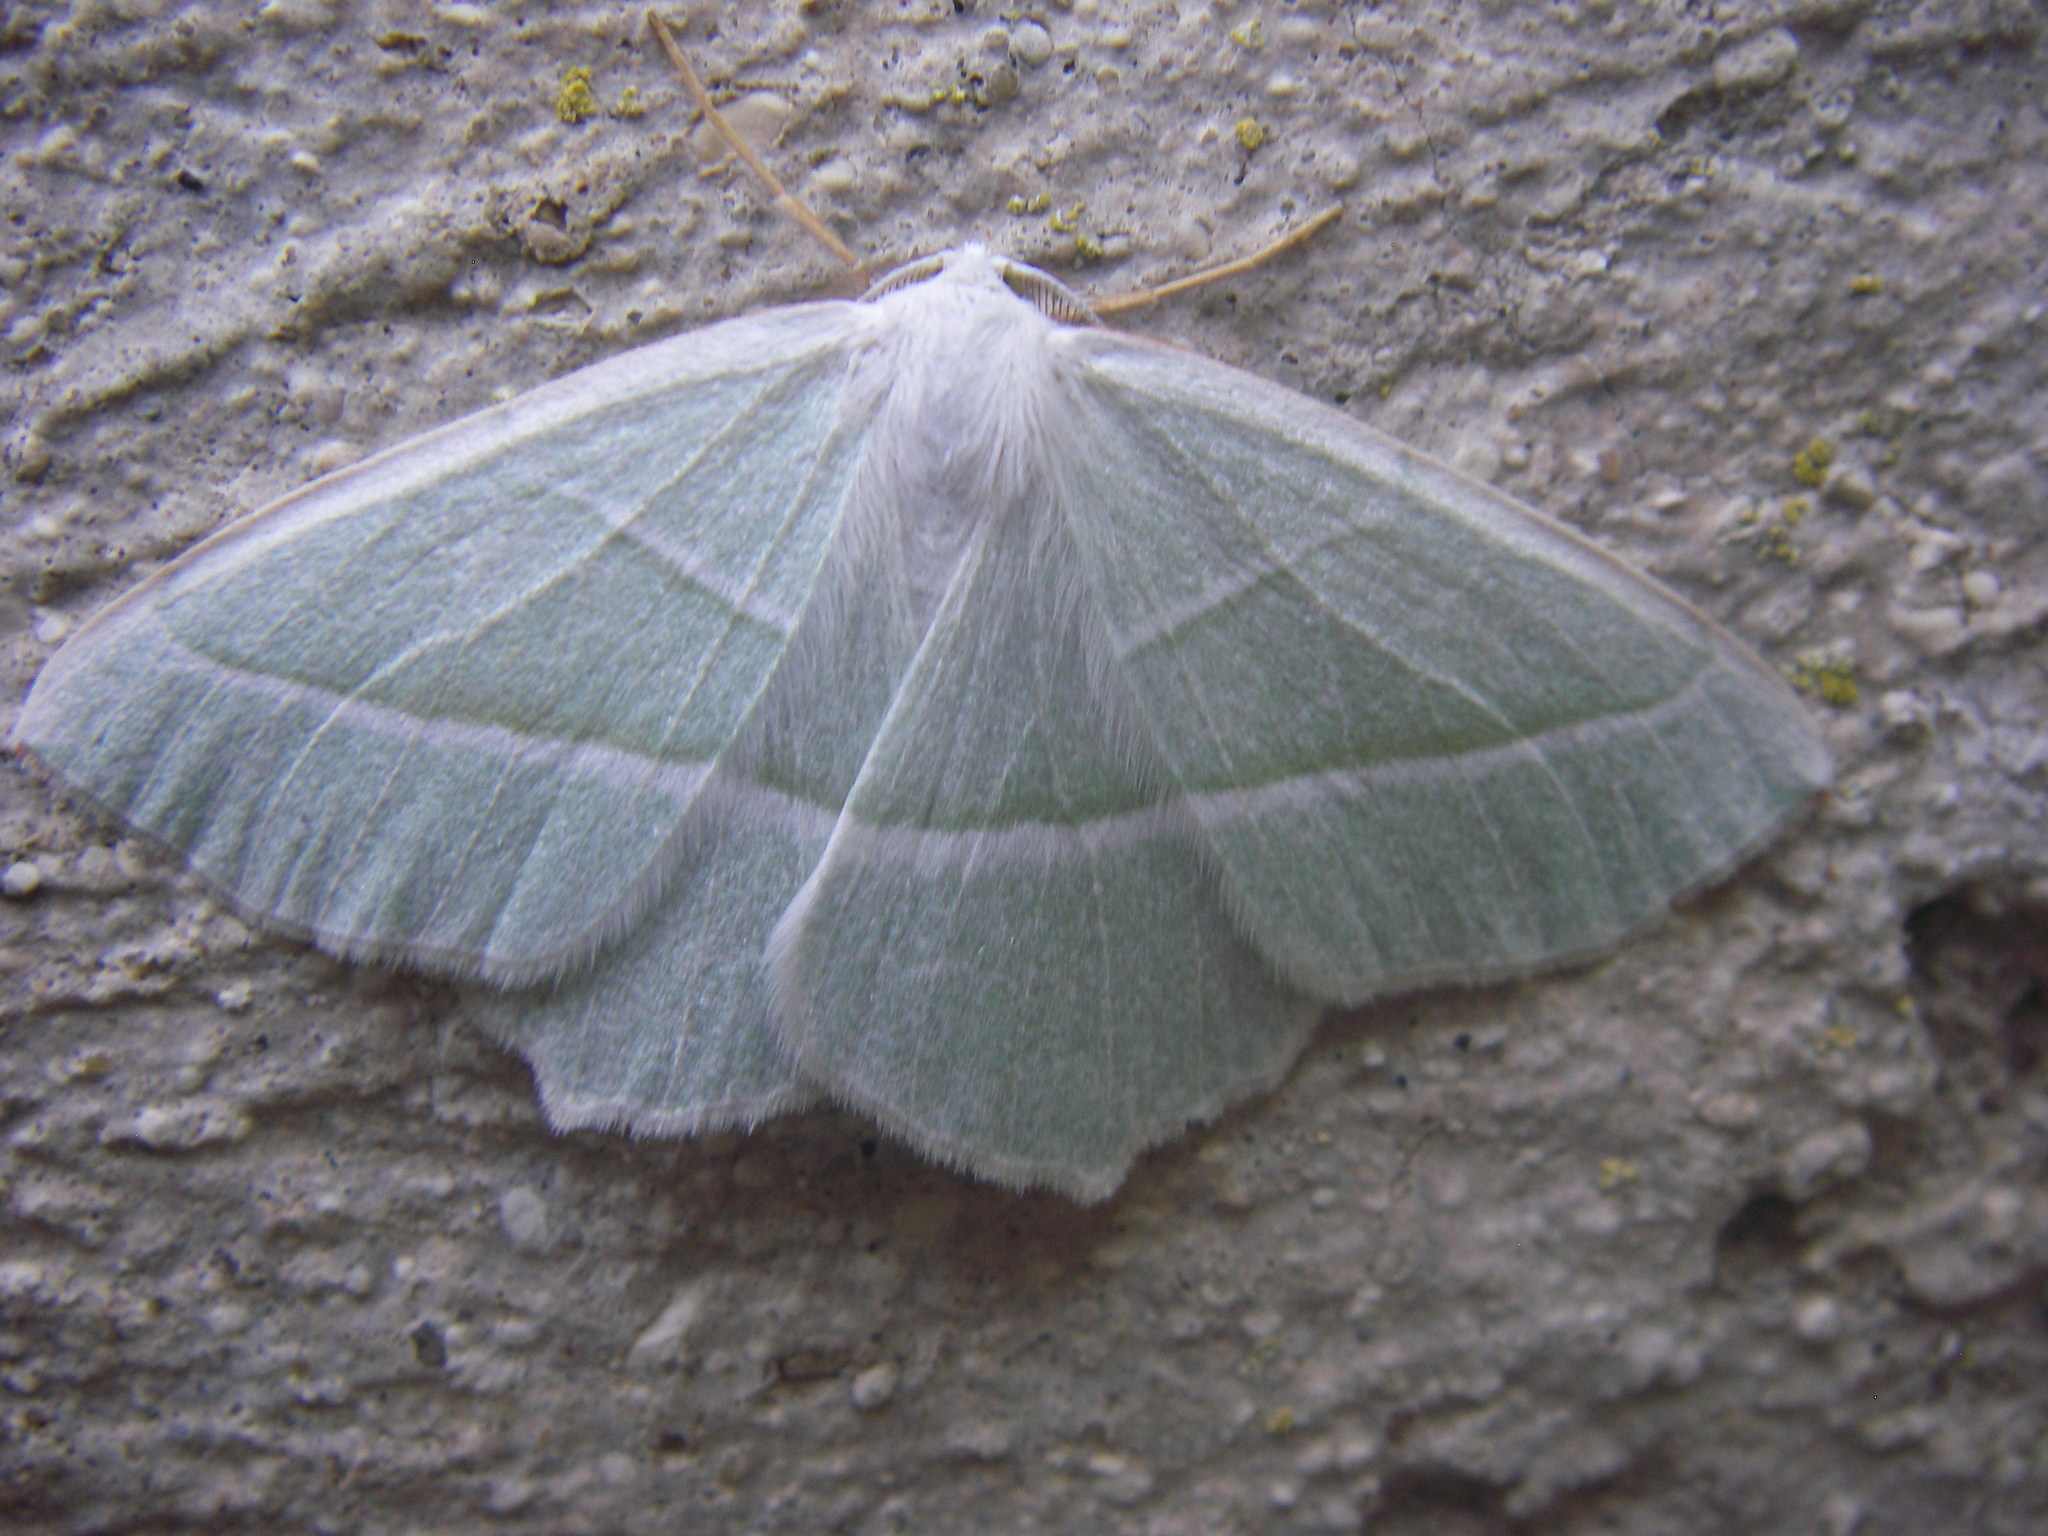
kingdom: Animalia
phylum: Arthropoda
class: Insecta
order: Lepidoptera
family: Geometridae
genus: Campaea
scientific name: Campaea margaritaria
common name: Light emerald
